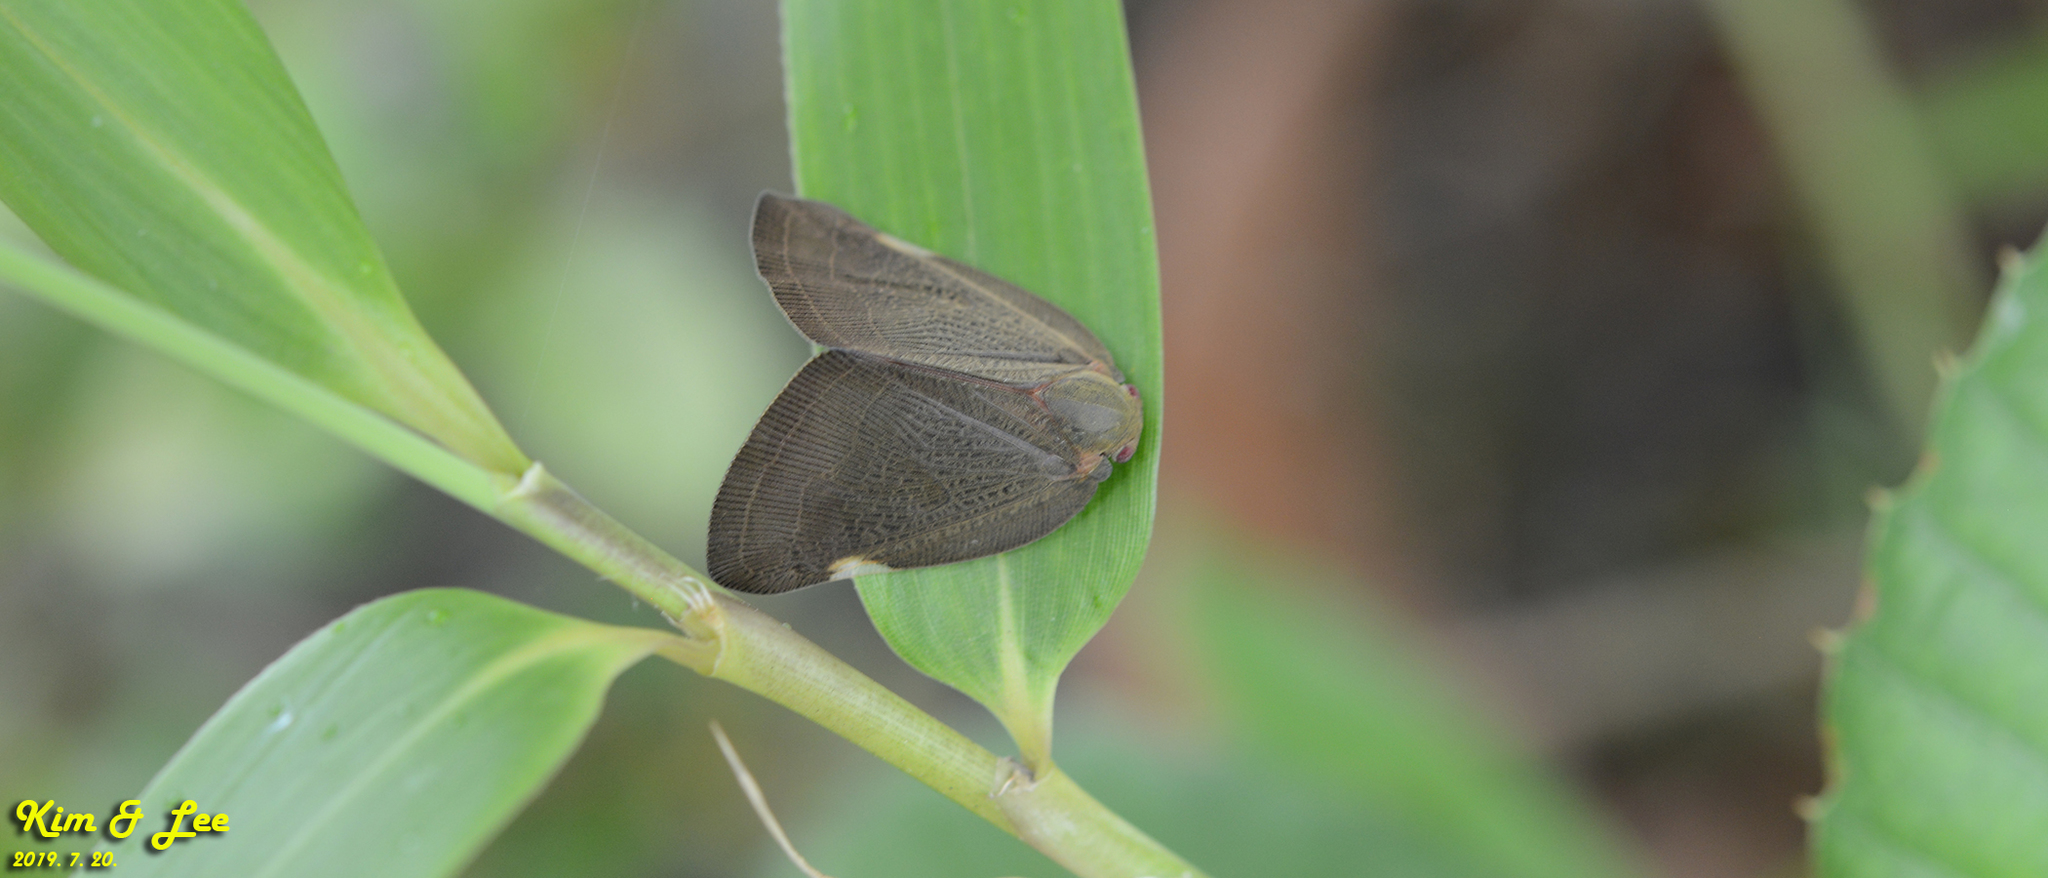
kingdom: Animalia
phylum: Arthropoda
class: Insecta
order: Hemiptera
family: Ricaniidae
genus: Ricanula
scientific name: Ricanula sublimata
